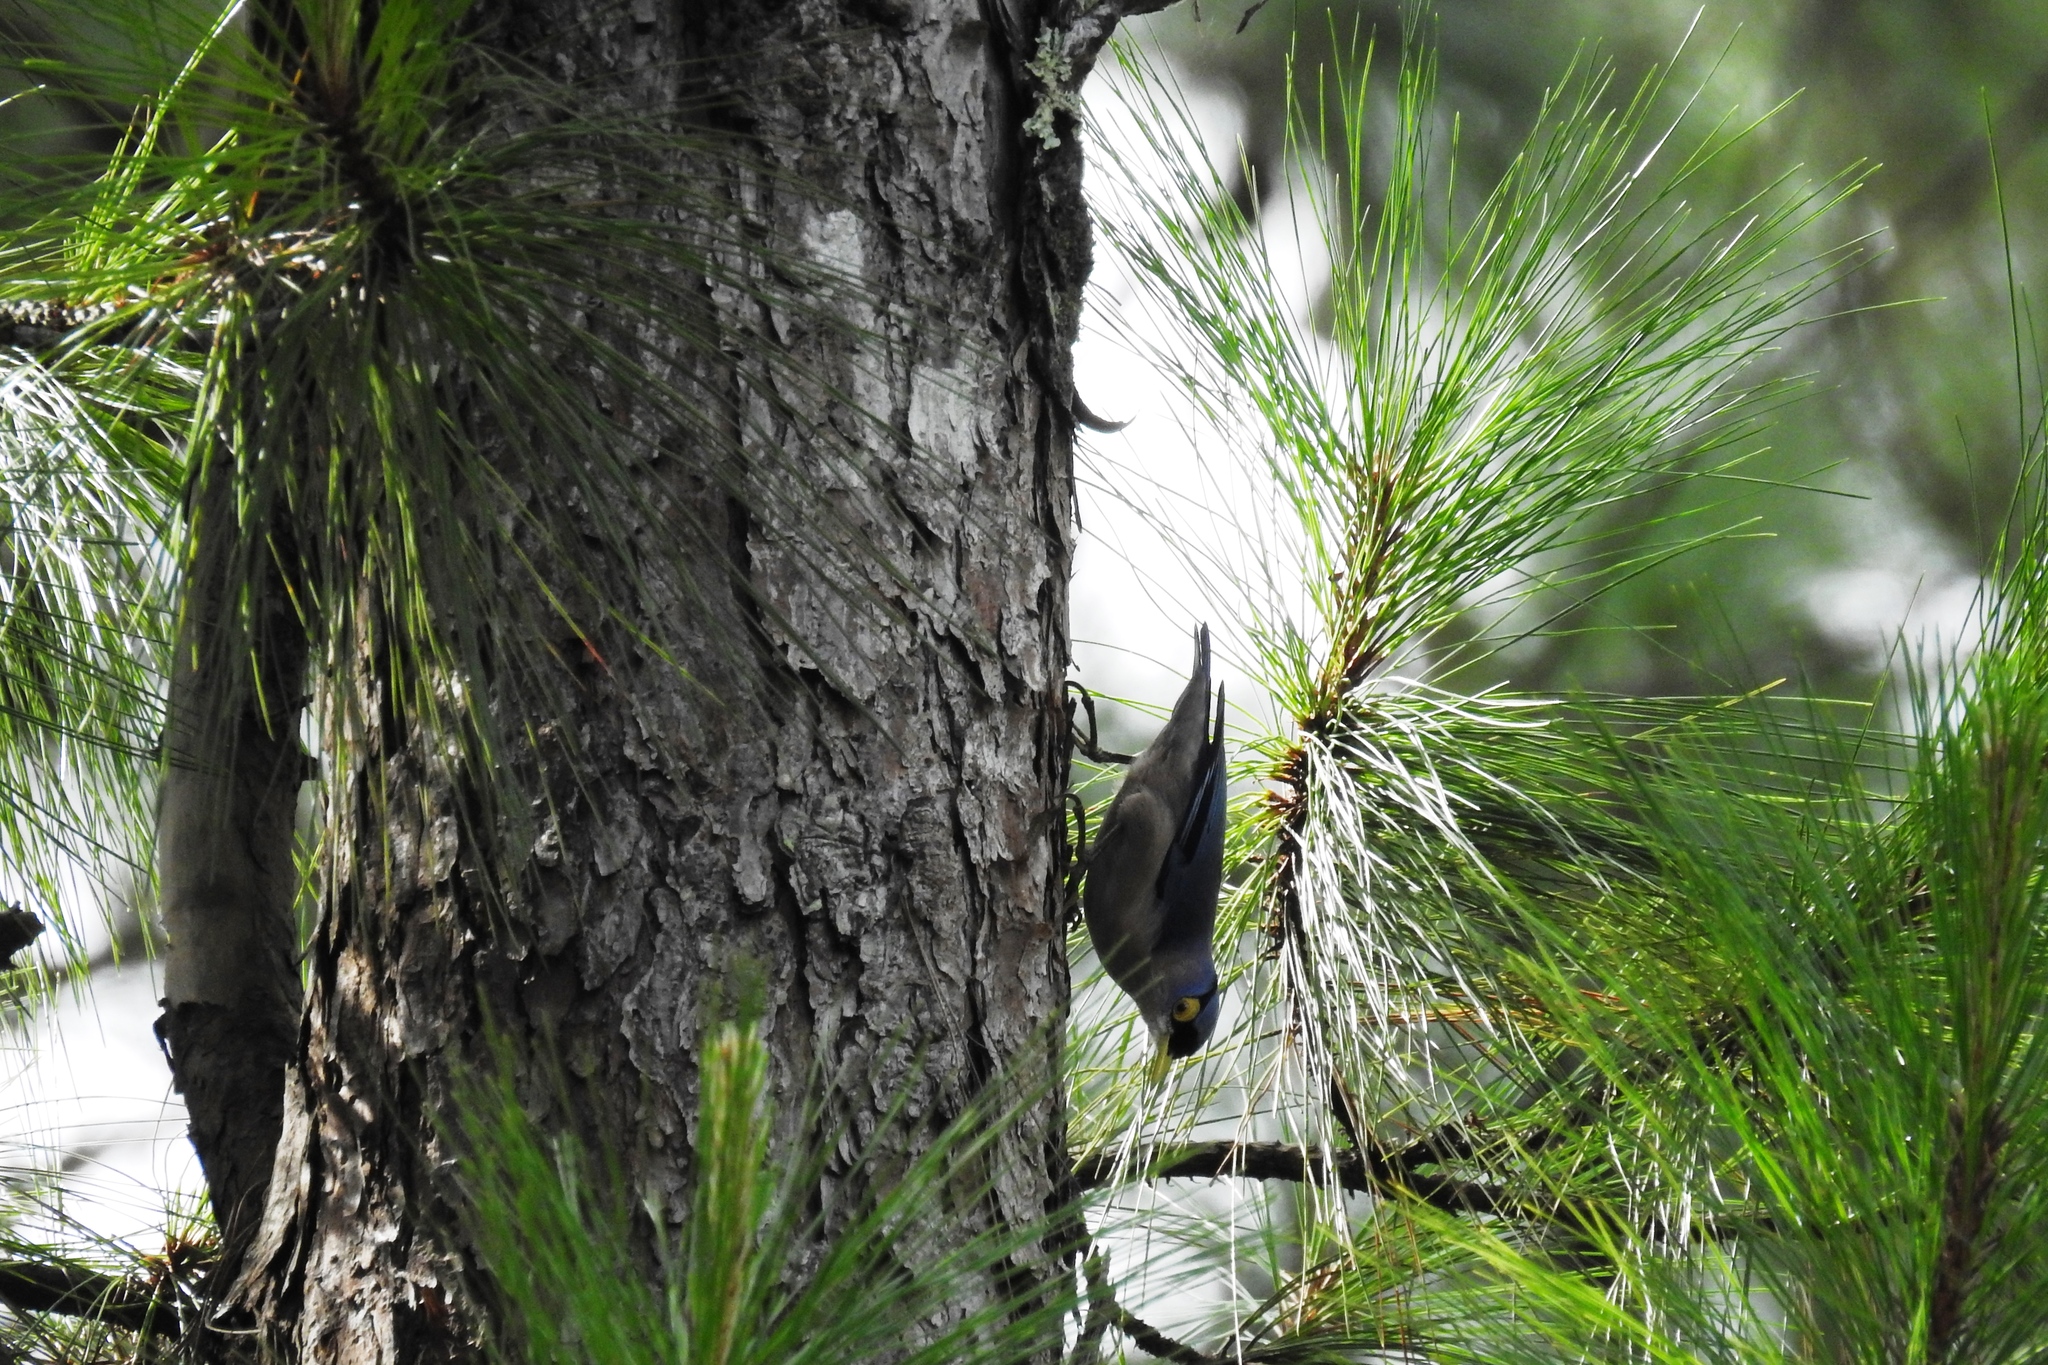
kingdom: Animalia
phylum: Chordata
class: Aves
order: Passeriformes
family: Sittidae
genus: Sitta
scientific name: Sitta oenochlamys
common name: Sulphur-billed nuthatch
